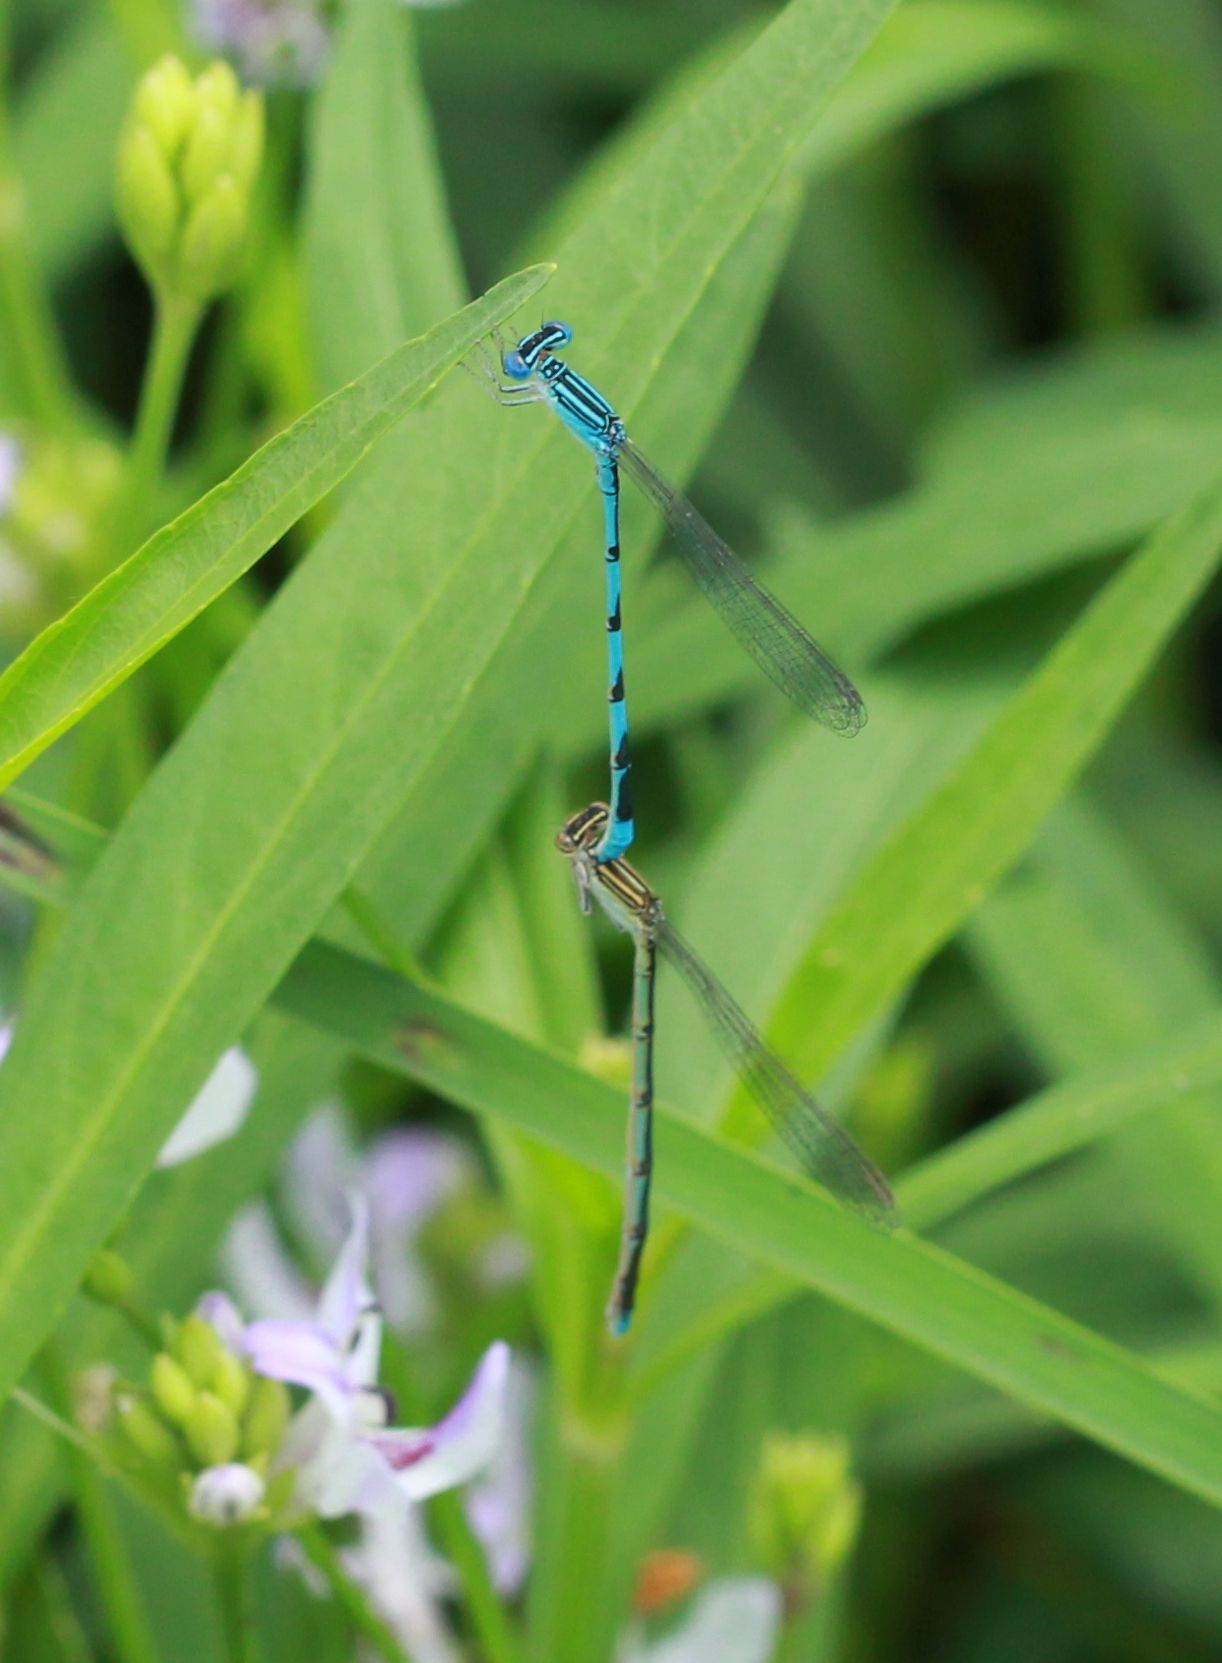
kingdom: Animalia
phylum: Arthropoda
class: Insecta
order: Odonata
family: Coenagrionidae
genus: Enallagma
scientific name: Enallagma basidens
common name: Double-striped bluet
